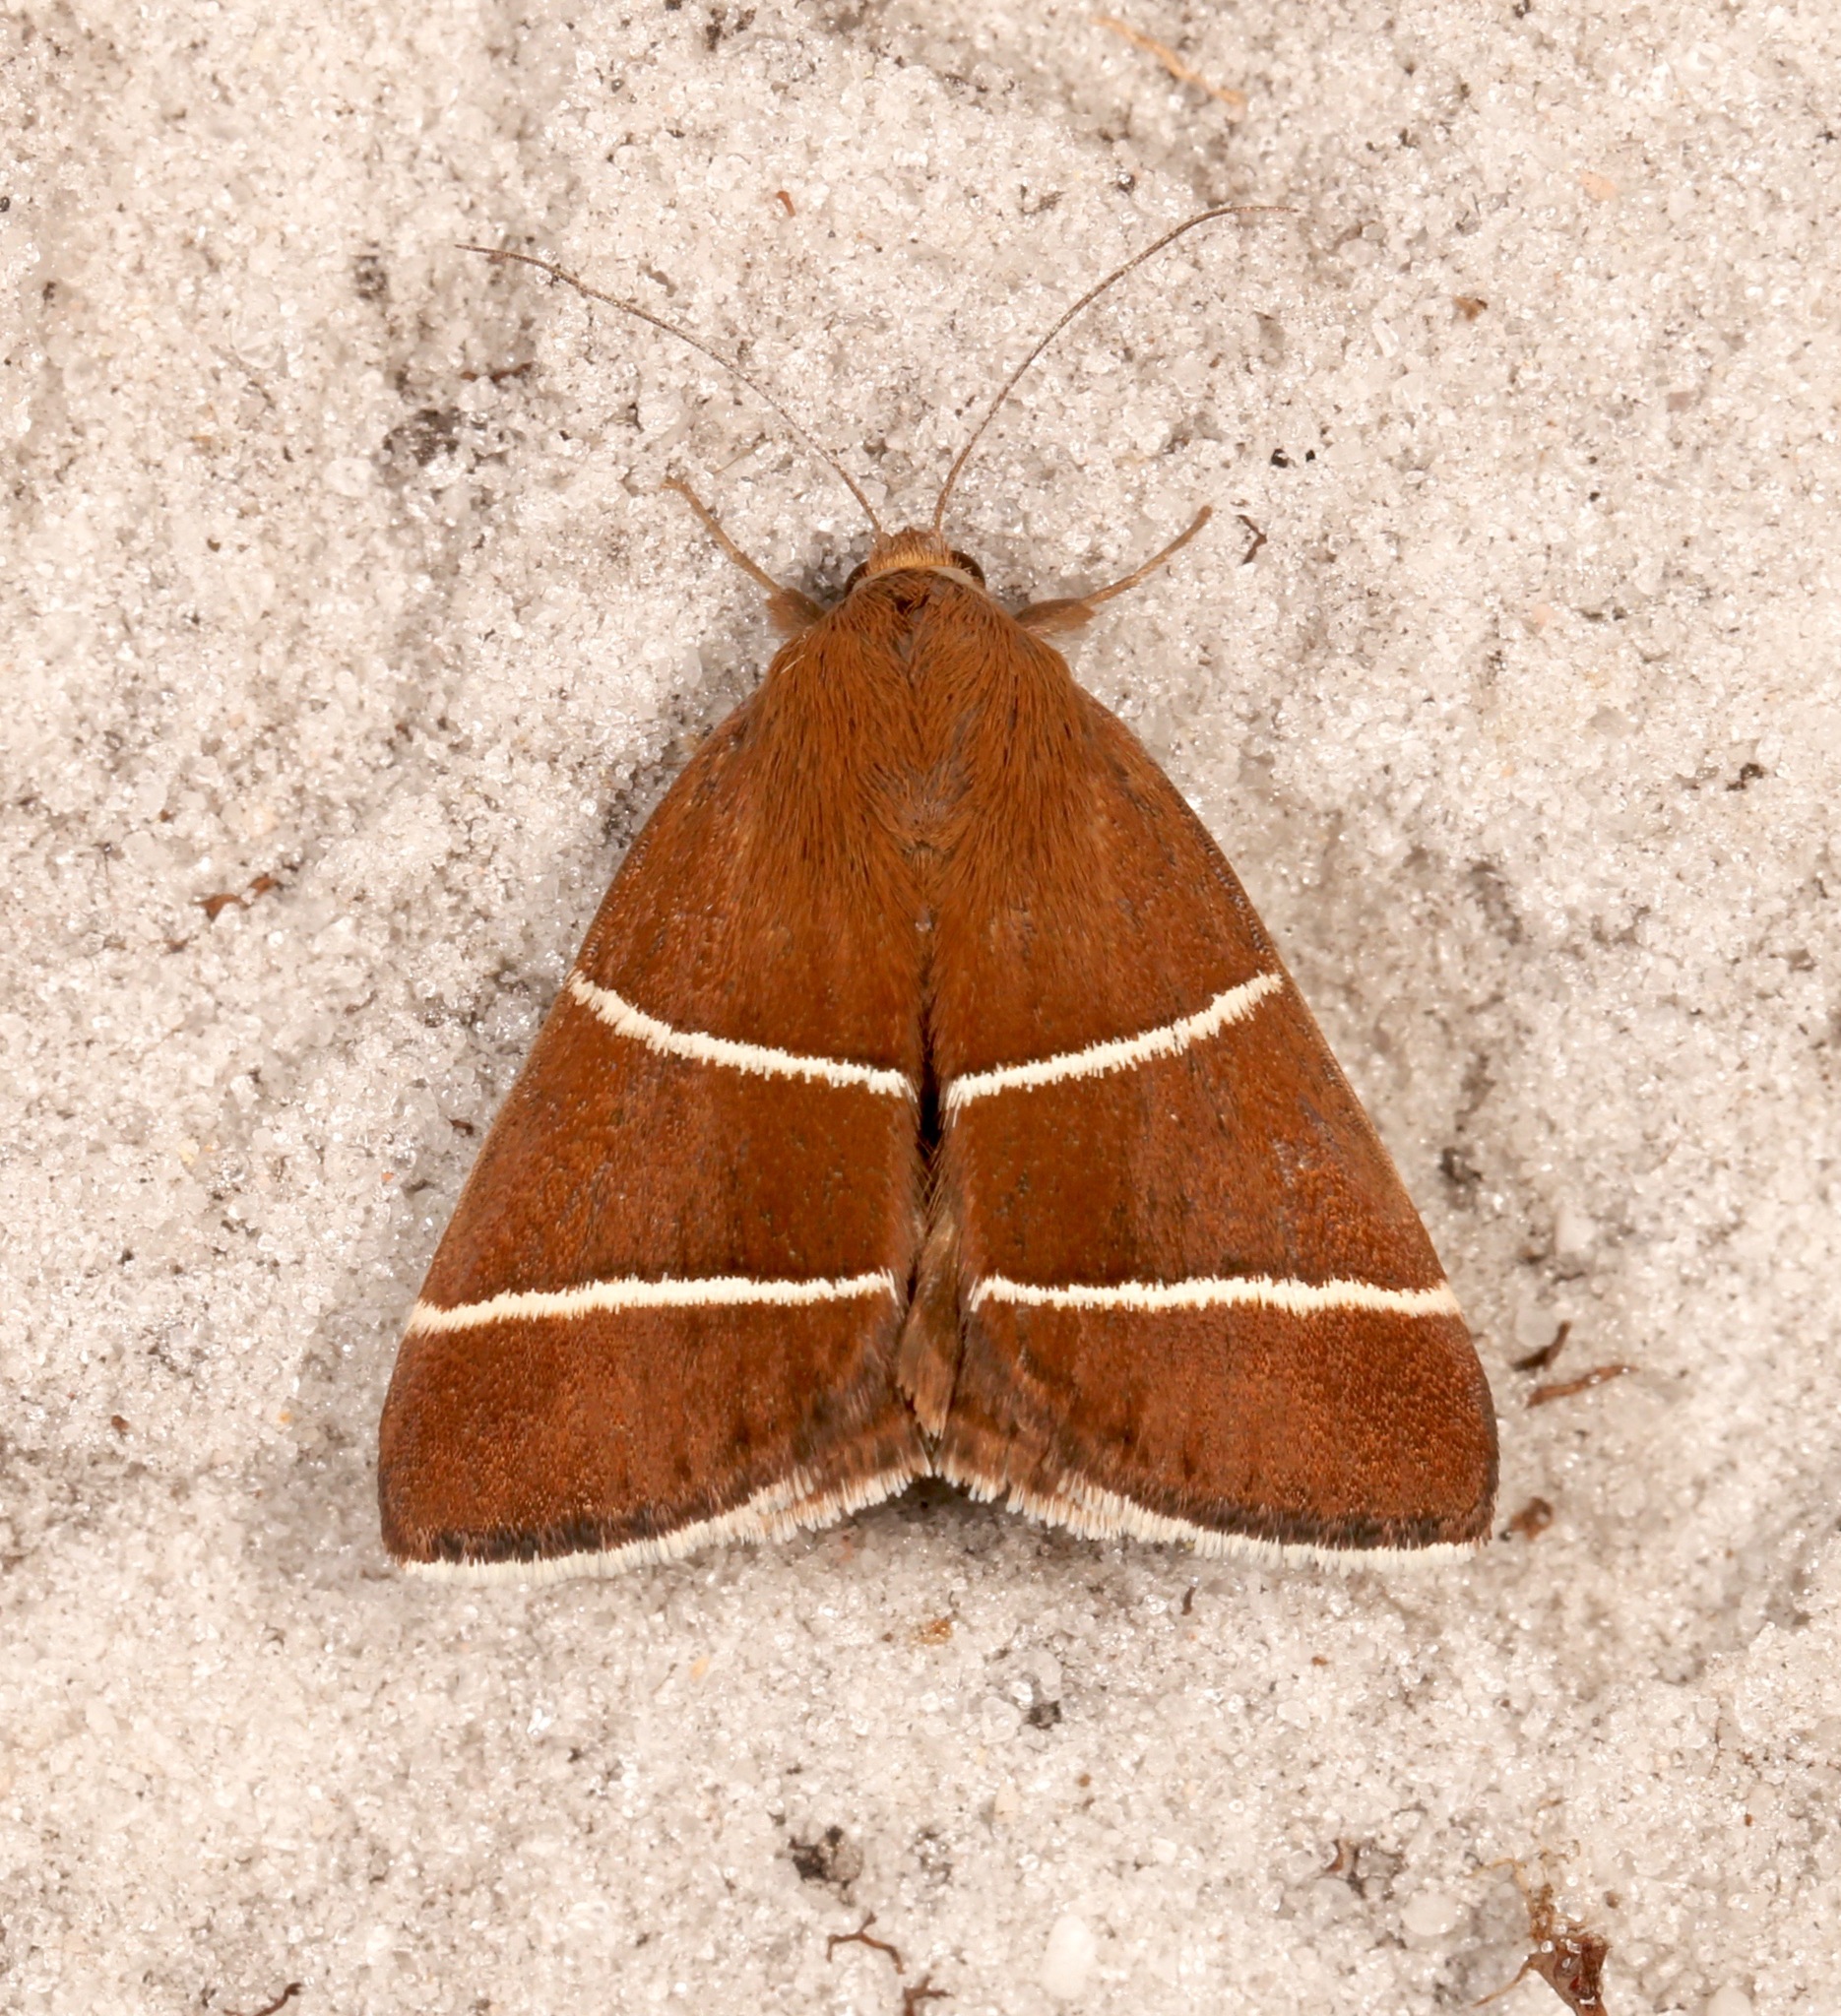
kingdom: Animalia
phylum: Arthropoda
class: Insecta
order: Lepidoptera
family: Erebidae
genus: Argyrostrotis
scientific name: Argyrostrotis quadrifilaris
